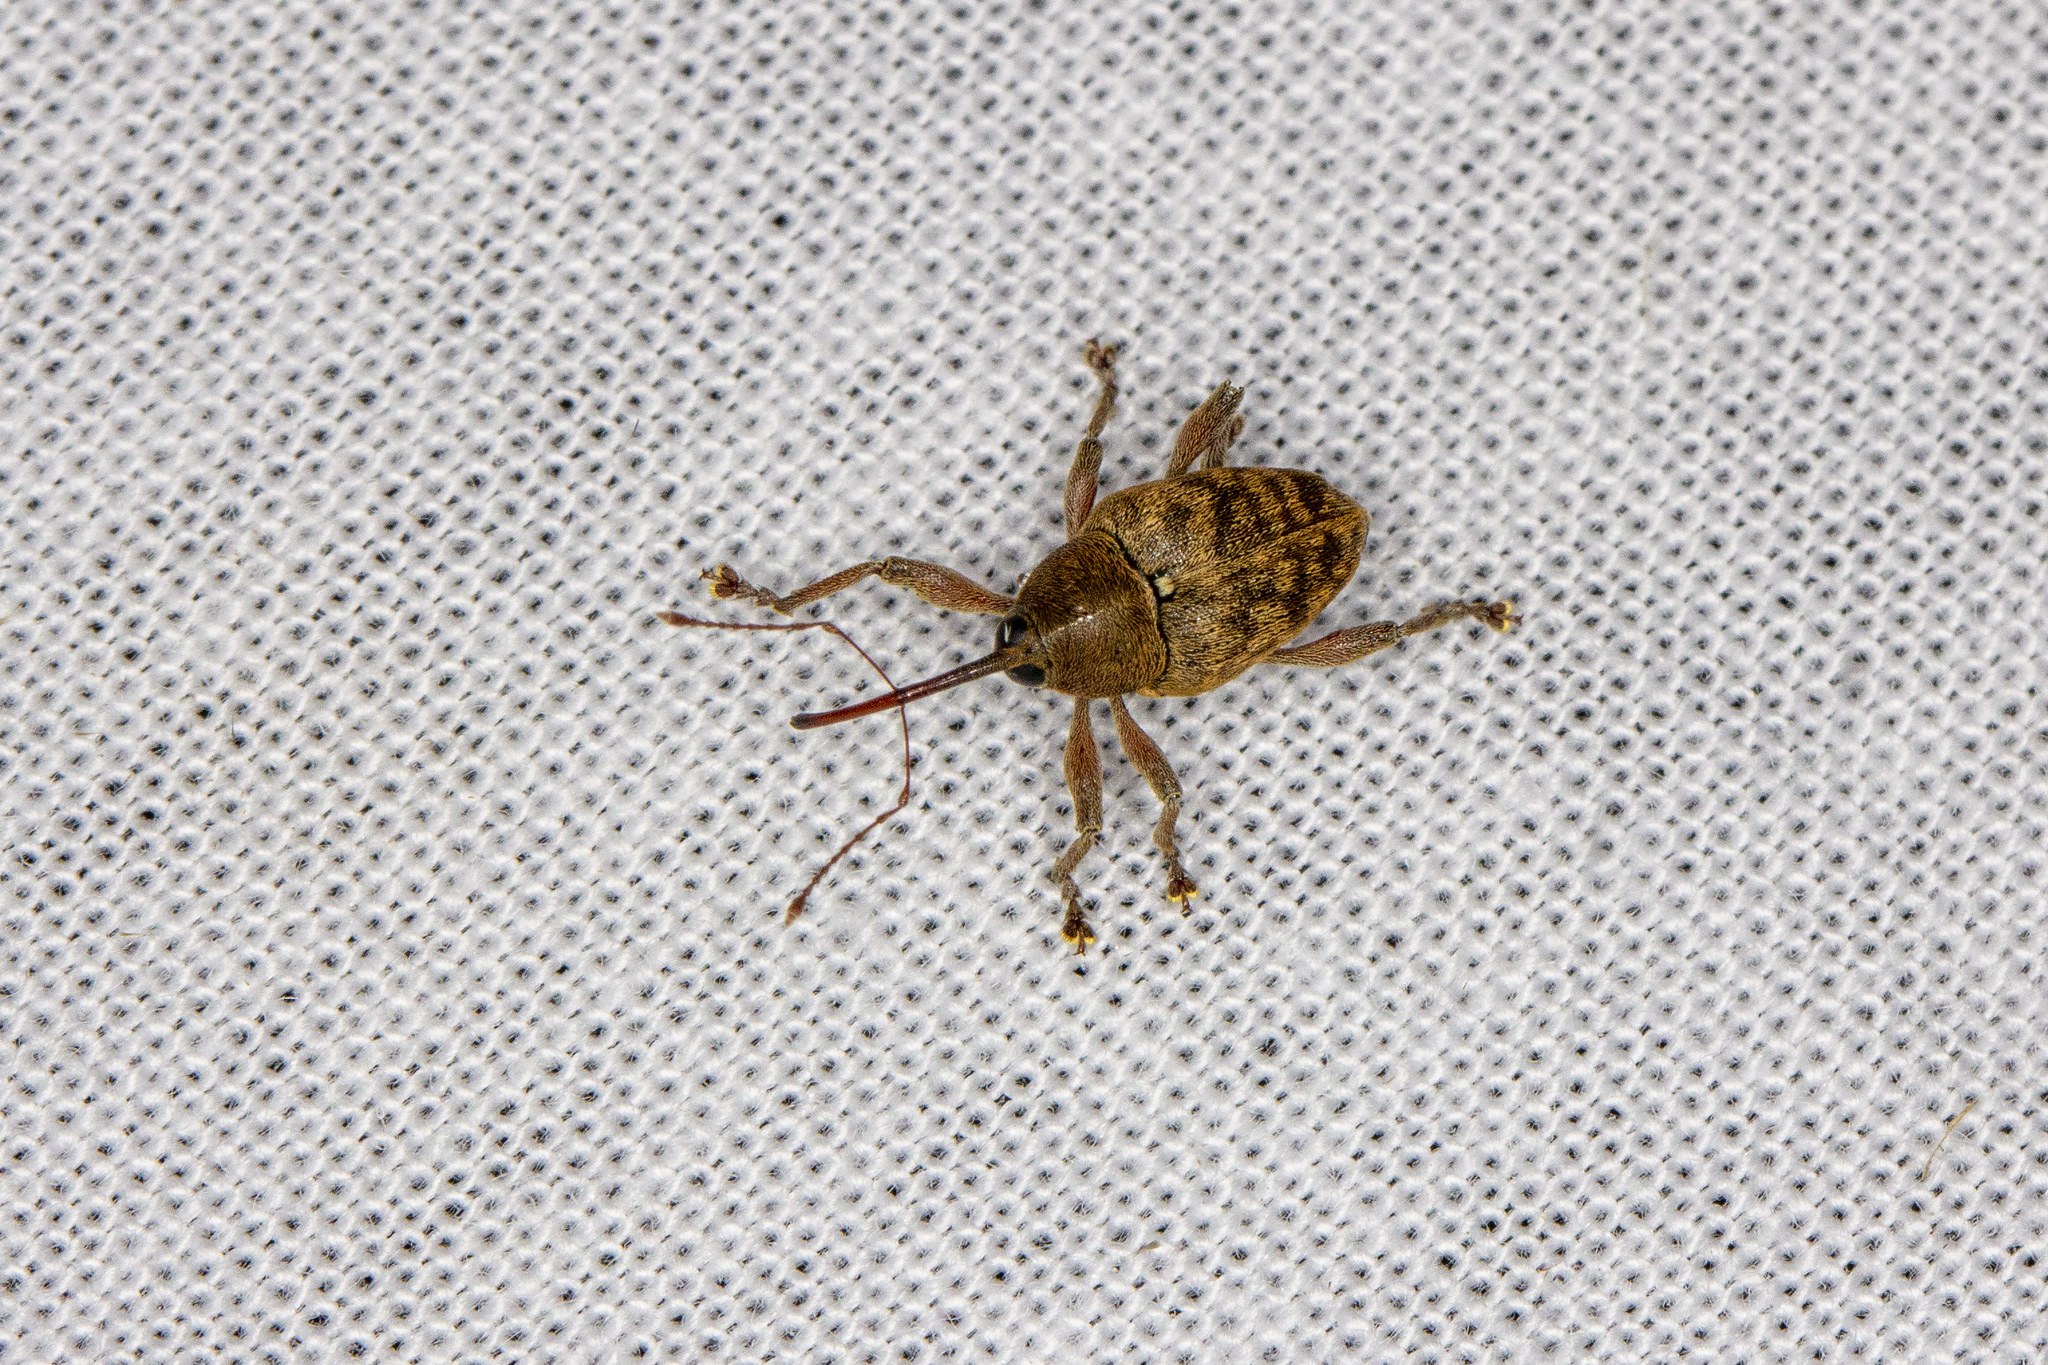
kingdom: Animalia
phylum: Arthropoda
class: Insecta
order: Coleoptera
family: Curculionidae
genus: Curculio
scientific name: Curculio glandium
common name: Acorn weevil
